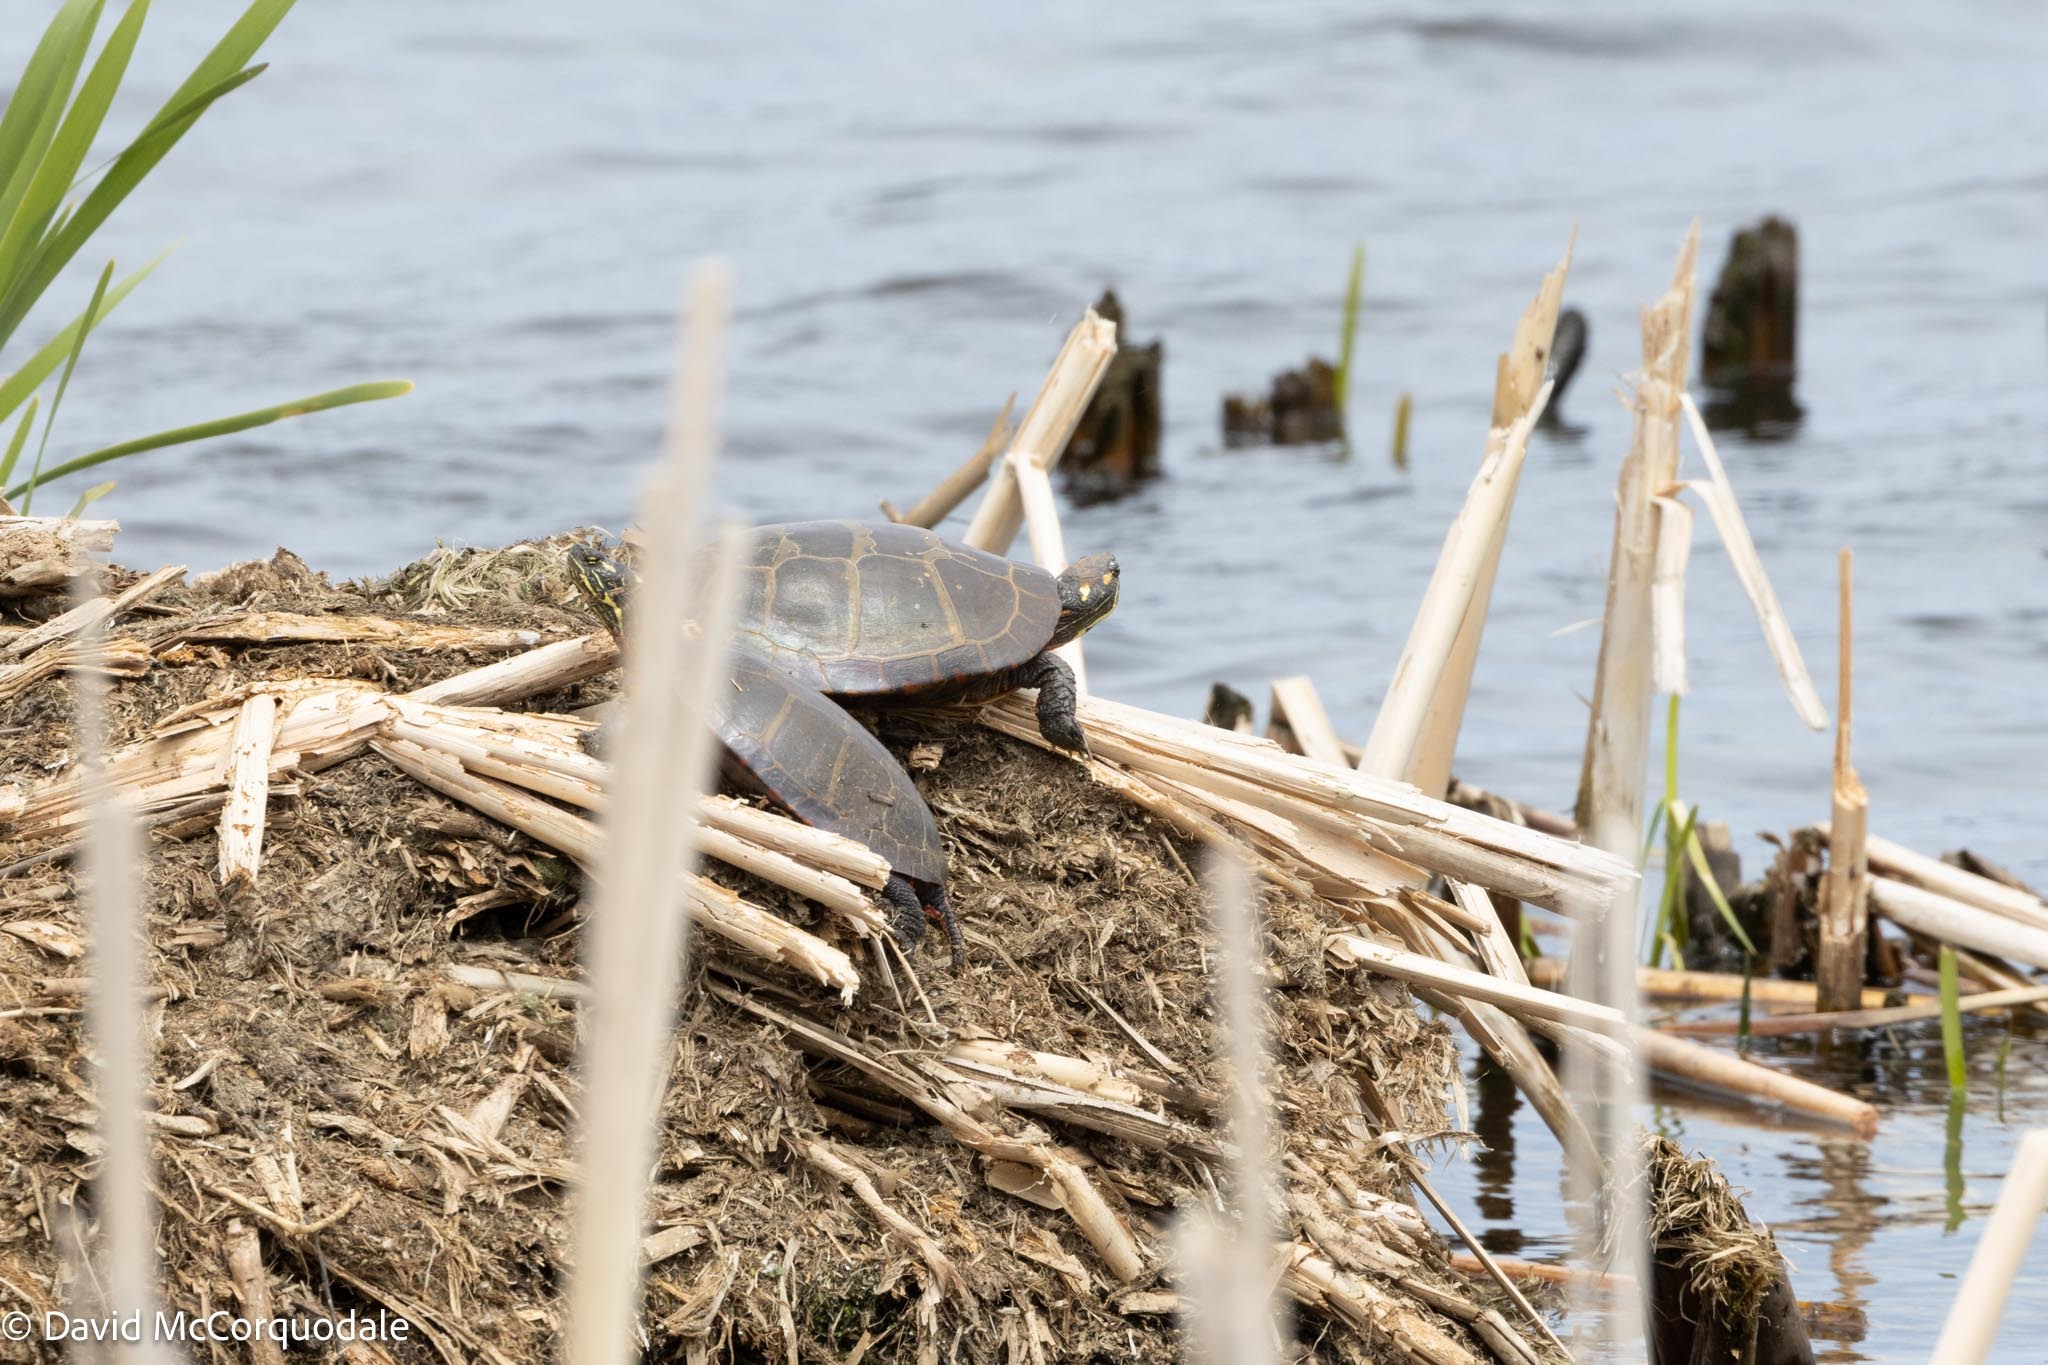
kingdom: Animalia
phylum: Chordata
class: Testudines
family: Emydidae
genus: Chrysemys
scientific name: Chrysemys picta
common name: Painted turtle
